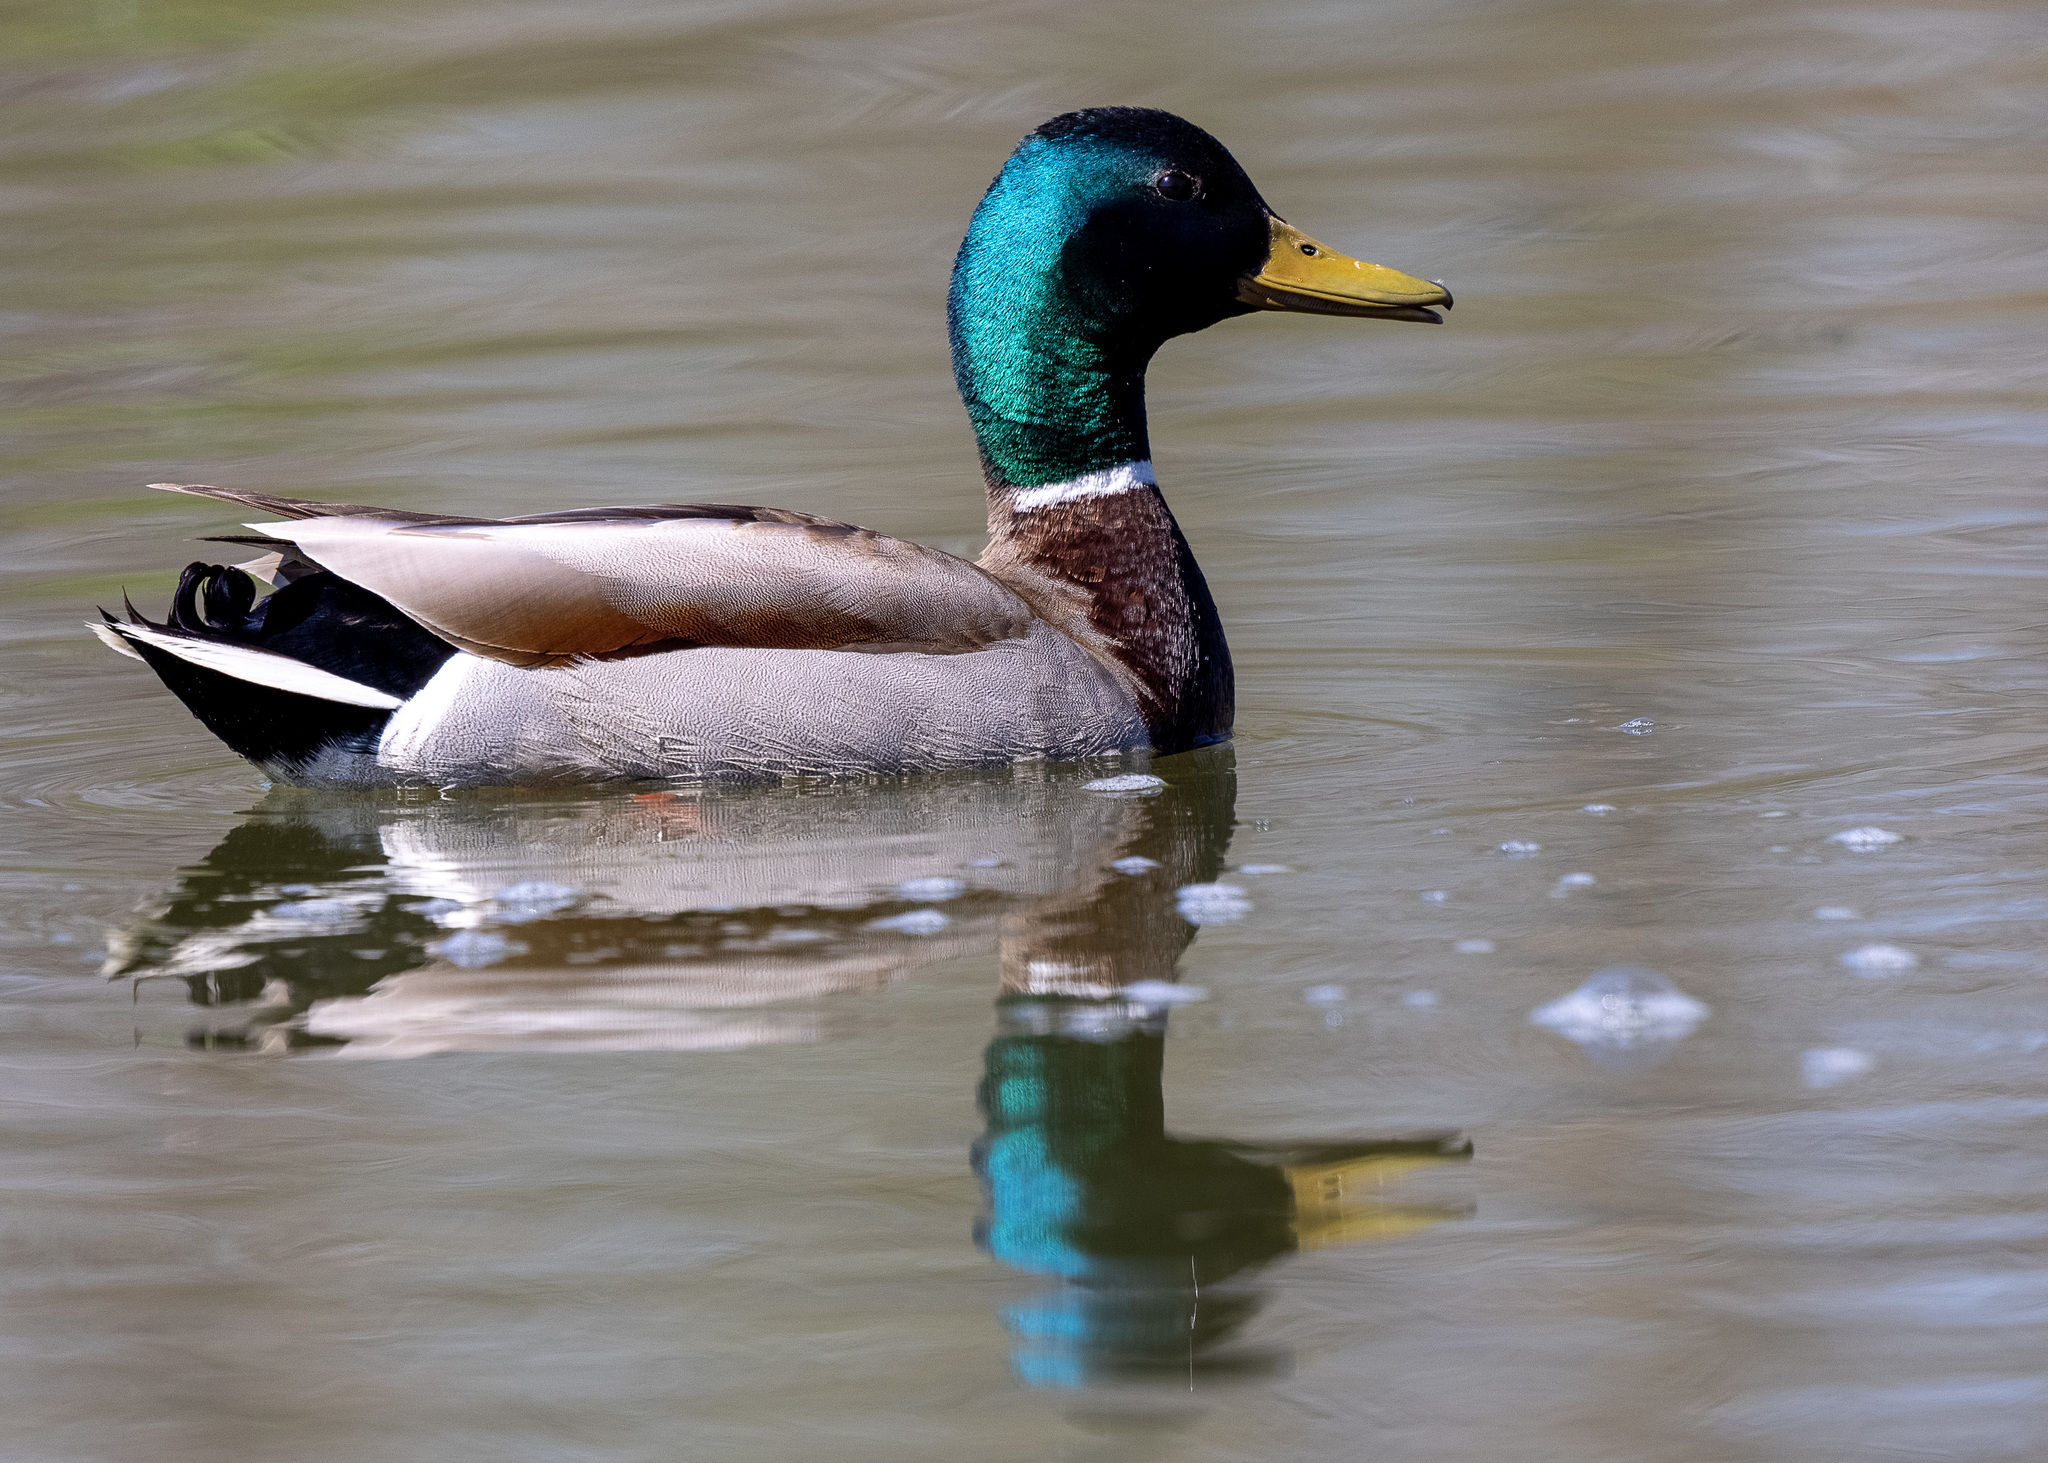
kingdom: Animalia
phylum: Chordata
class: Aves
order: Anseriformes
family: Anatidae
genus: Anas
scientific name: Anas platyrhynchos
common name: Mallard
